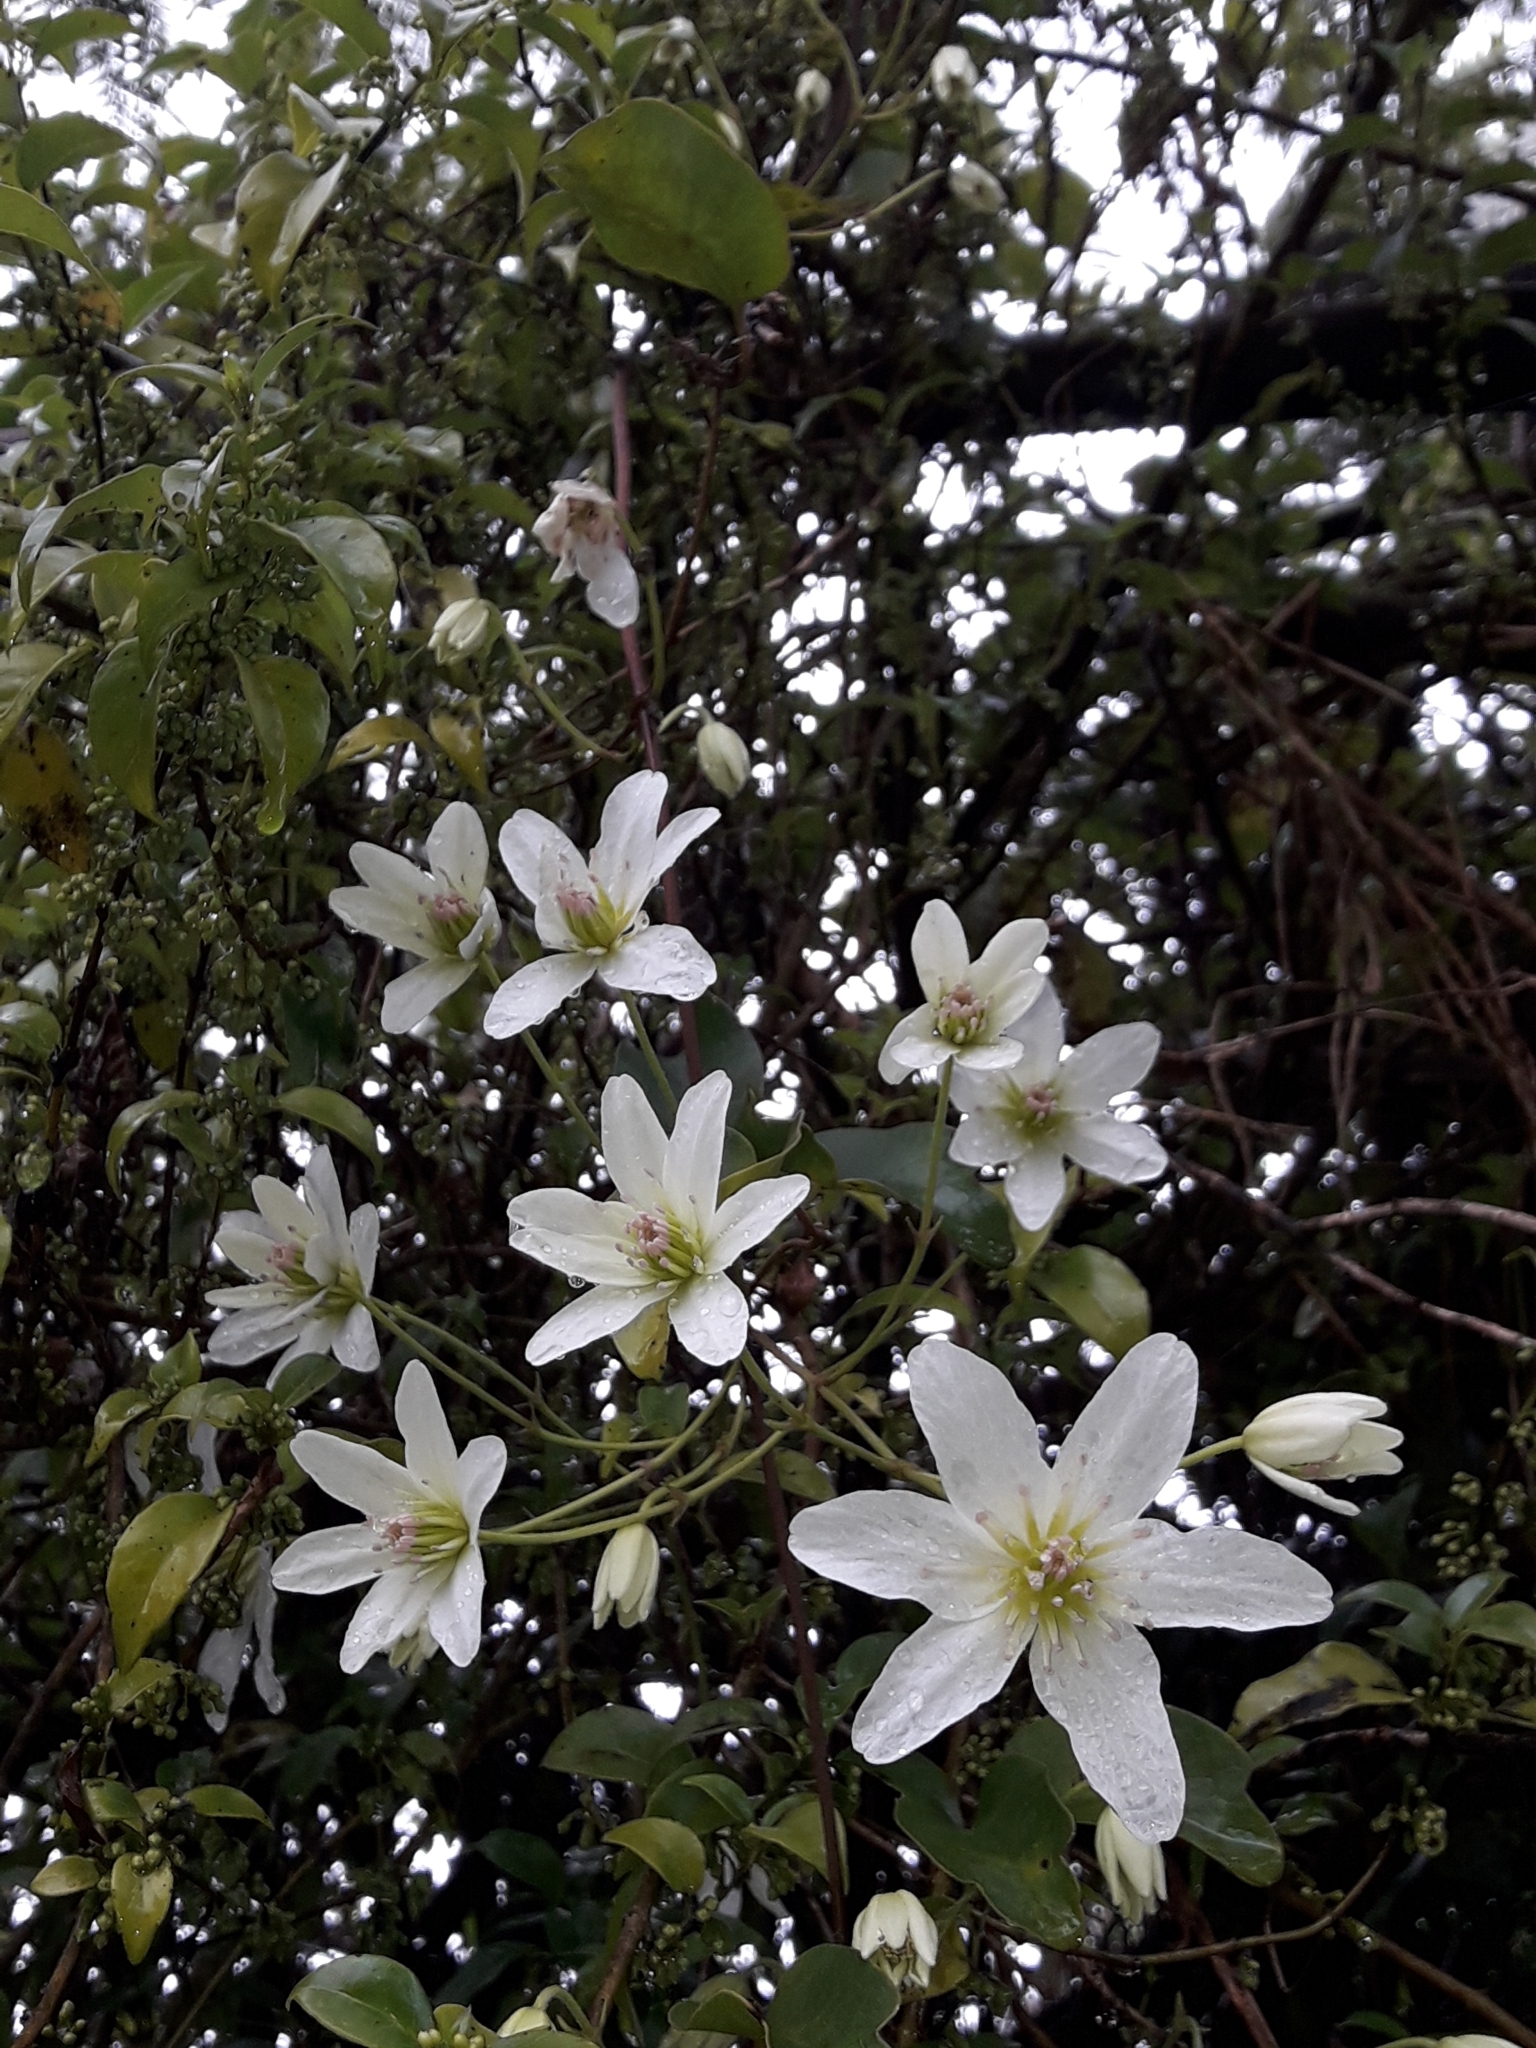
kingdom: Plantae
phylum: Tracheophyta
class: Magnoliopsida
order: Ranunculales
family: Ranunculaceae
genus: Clematis
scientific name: Clematis paniculata
